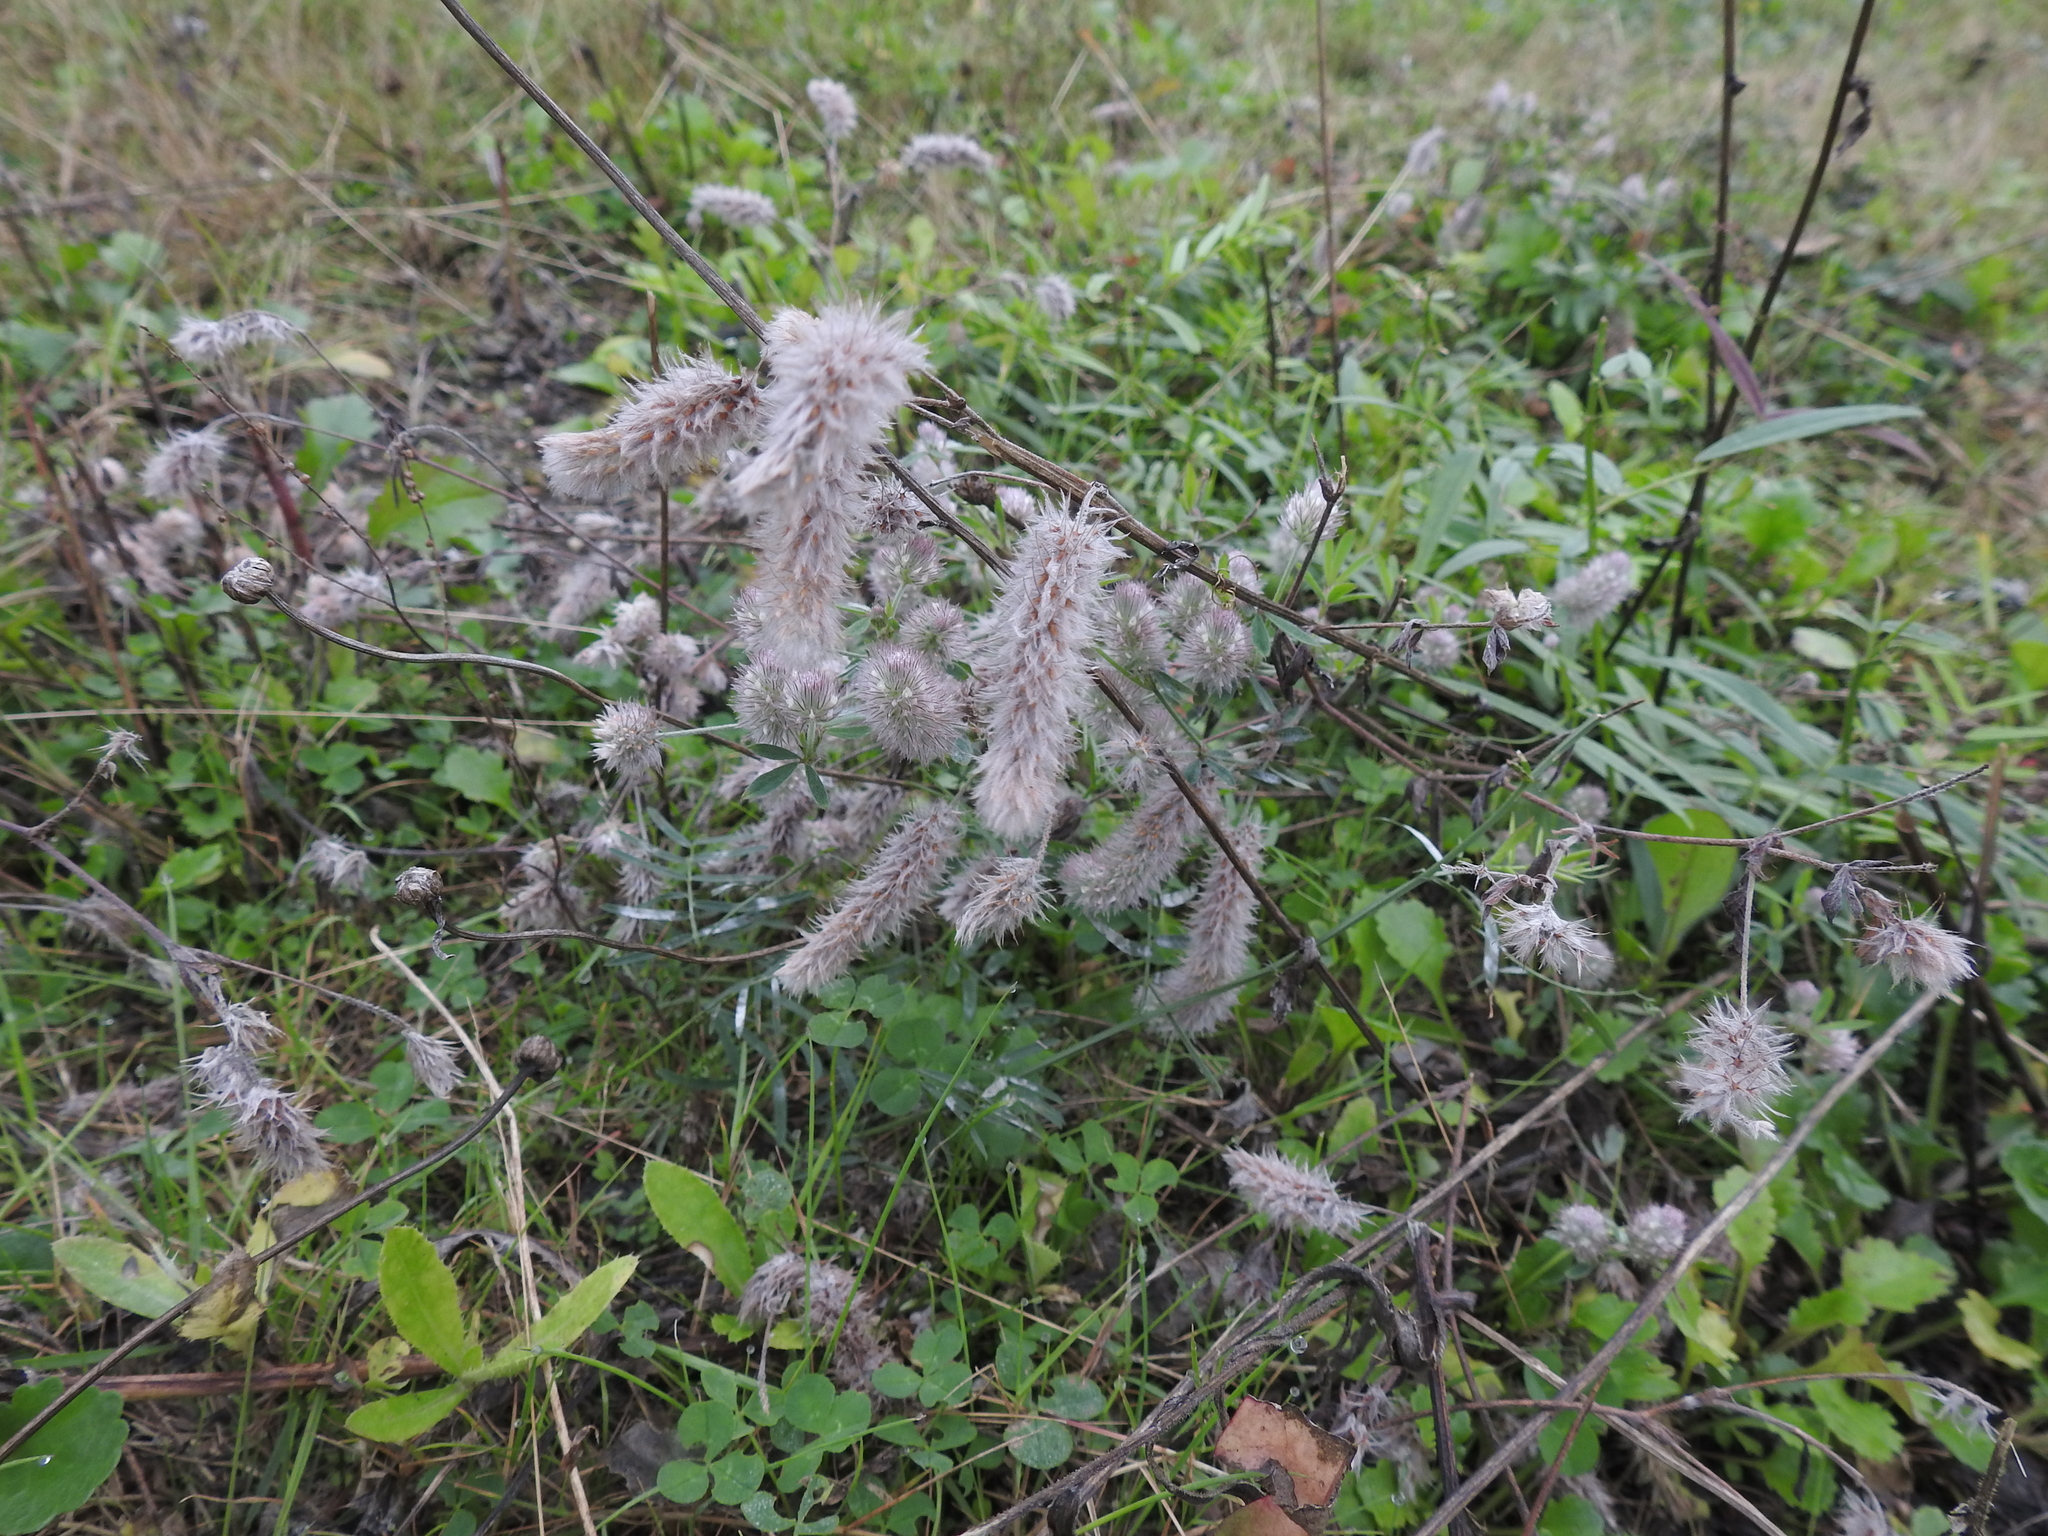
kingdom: Plantae
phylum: Tracheophyta
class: Magnoliopsida
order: Fabales
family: Fabaceae
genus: Trifolium
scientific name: Trifolium arvense
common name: Hare's-foot clover
